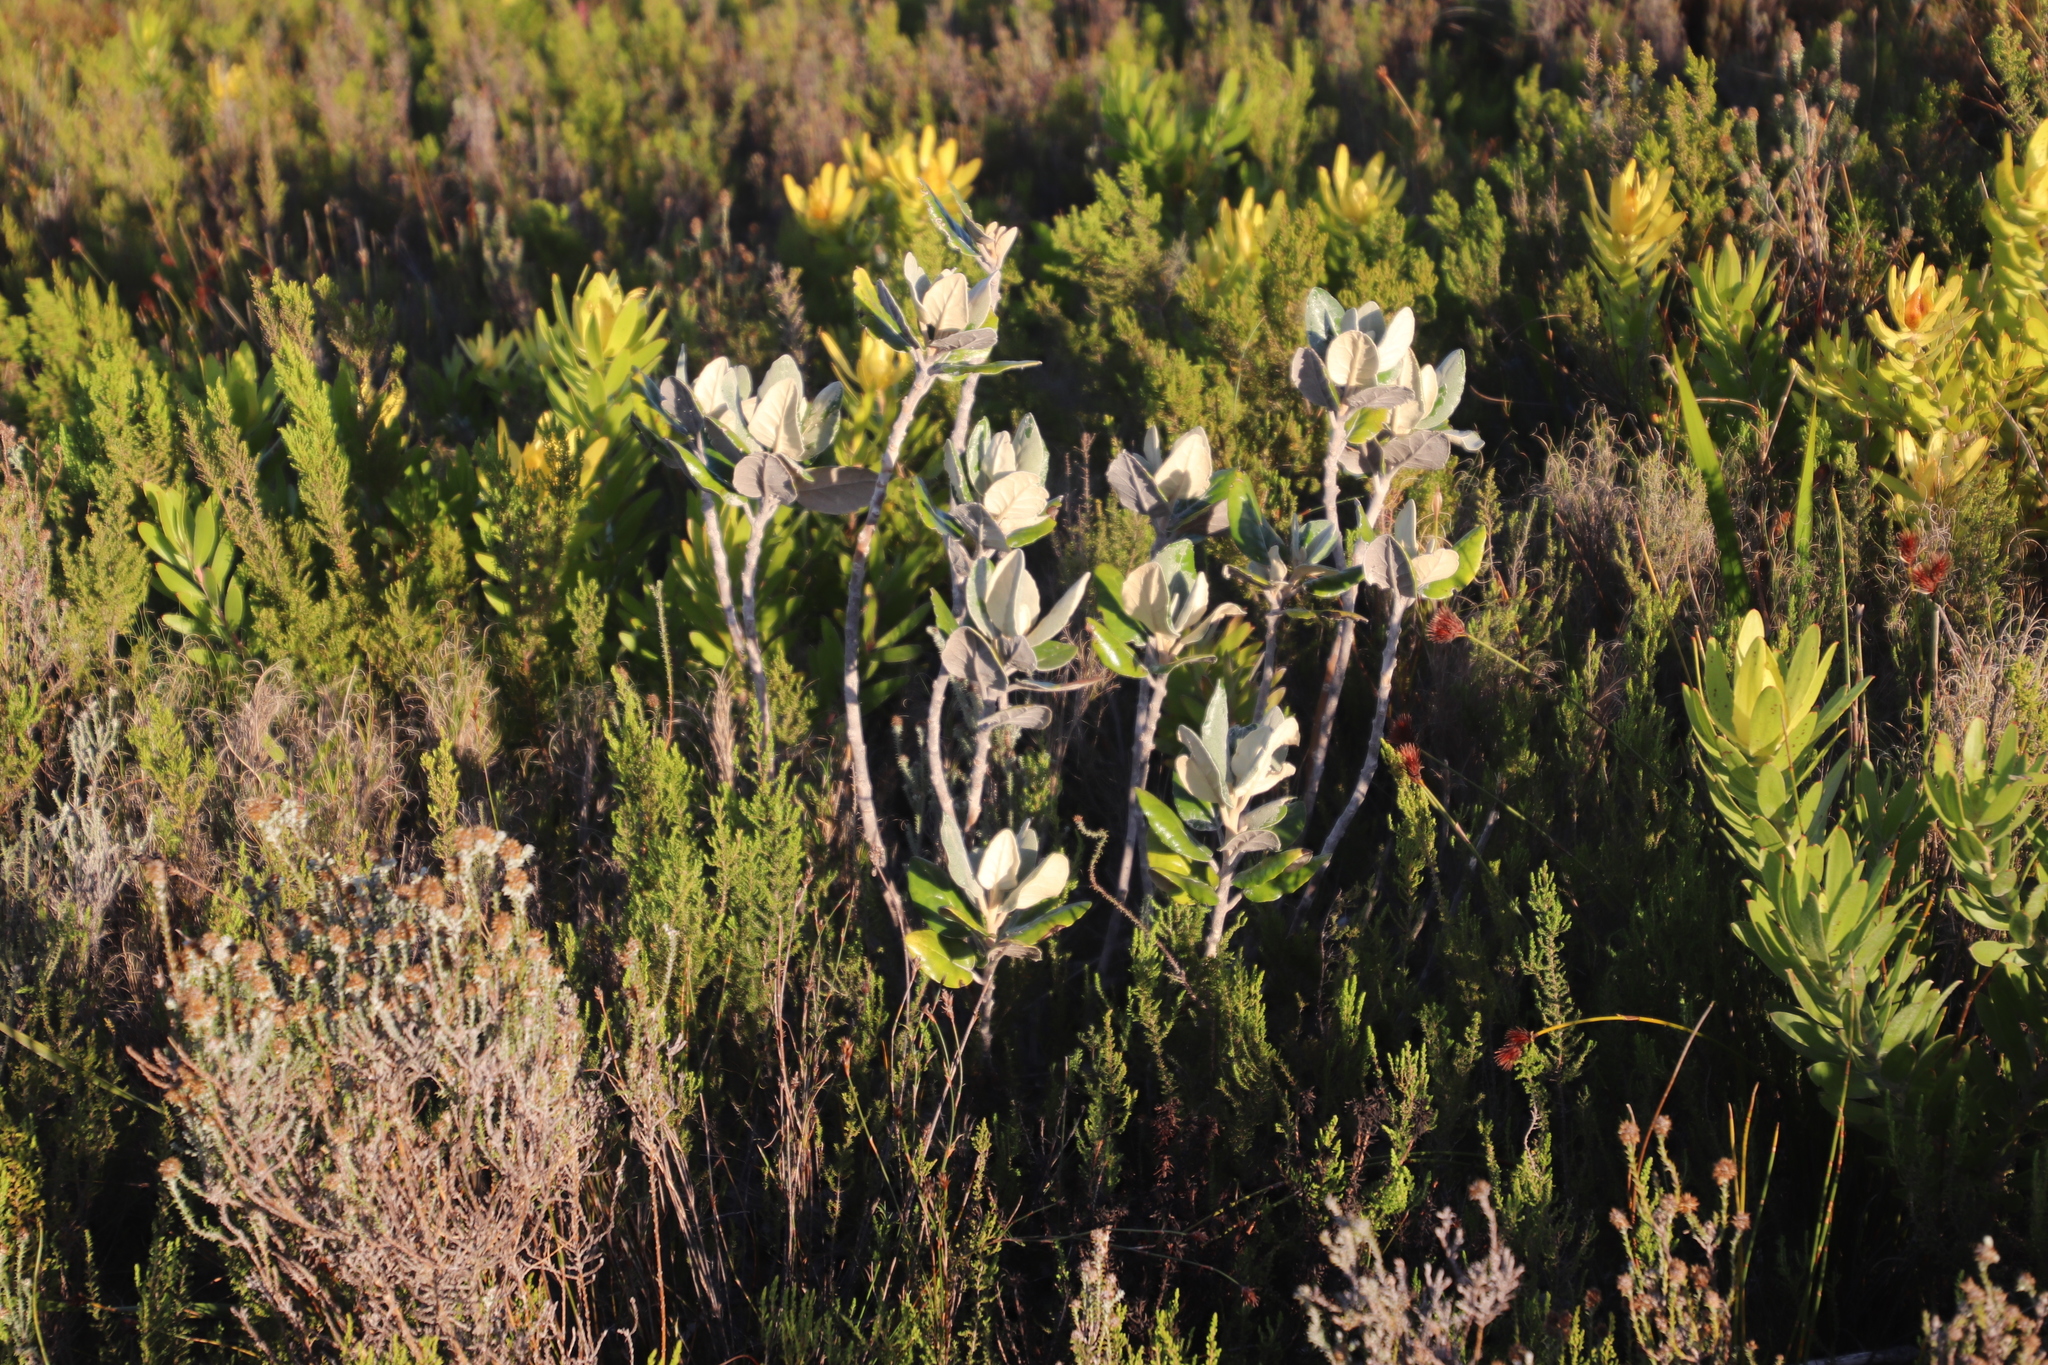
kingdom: Plantae
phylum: Tracheophyta
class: Magnoliopsida
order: Asterales
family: Asteraceae
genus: Capelio
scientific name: Capelio tabularis
